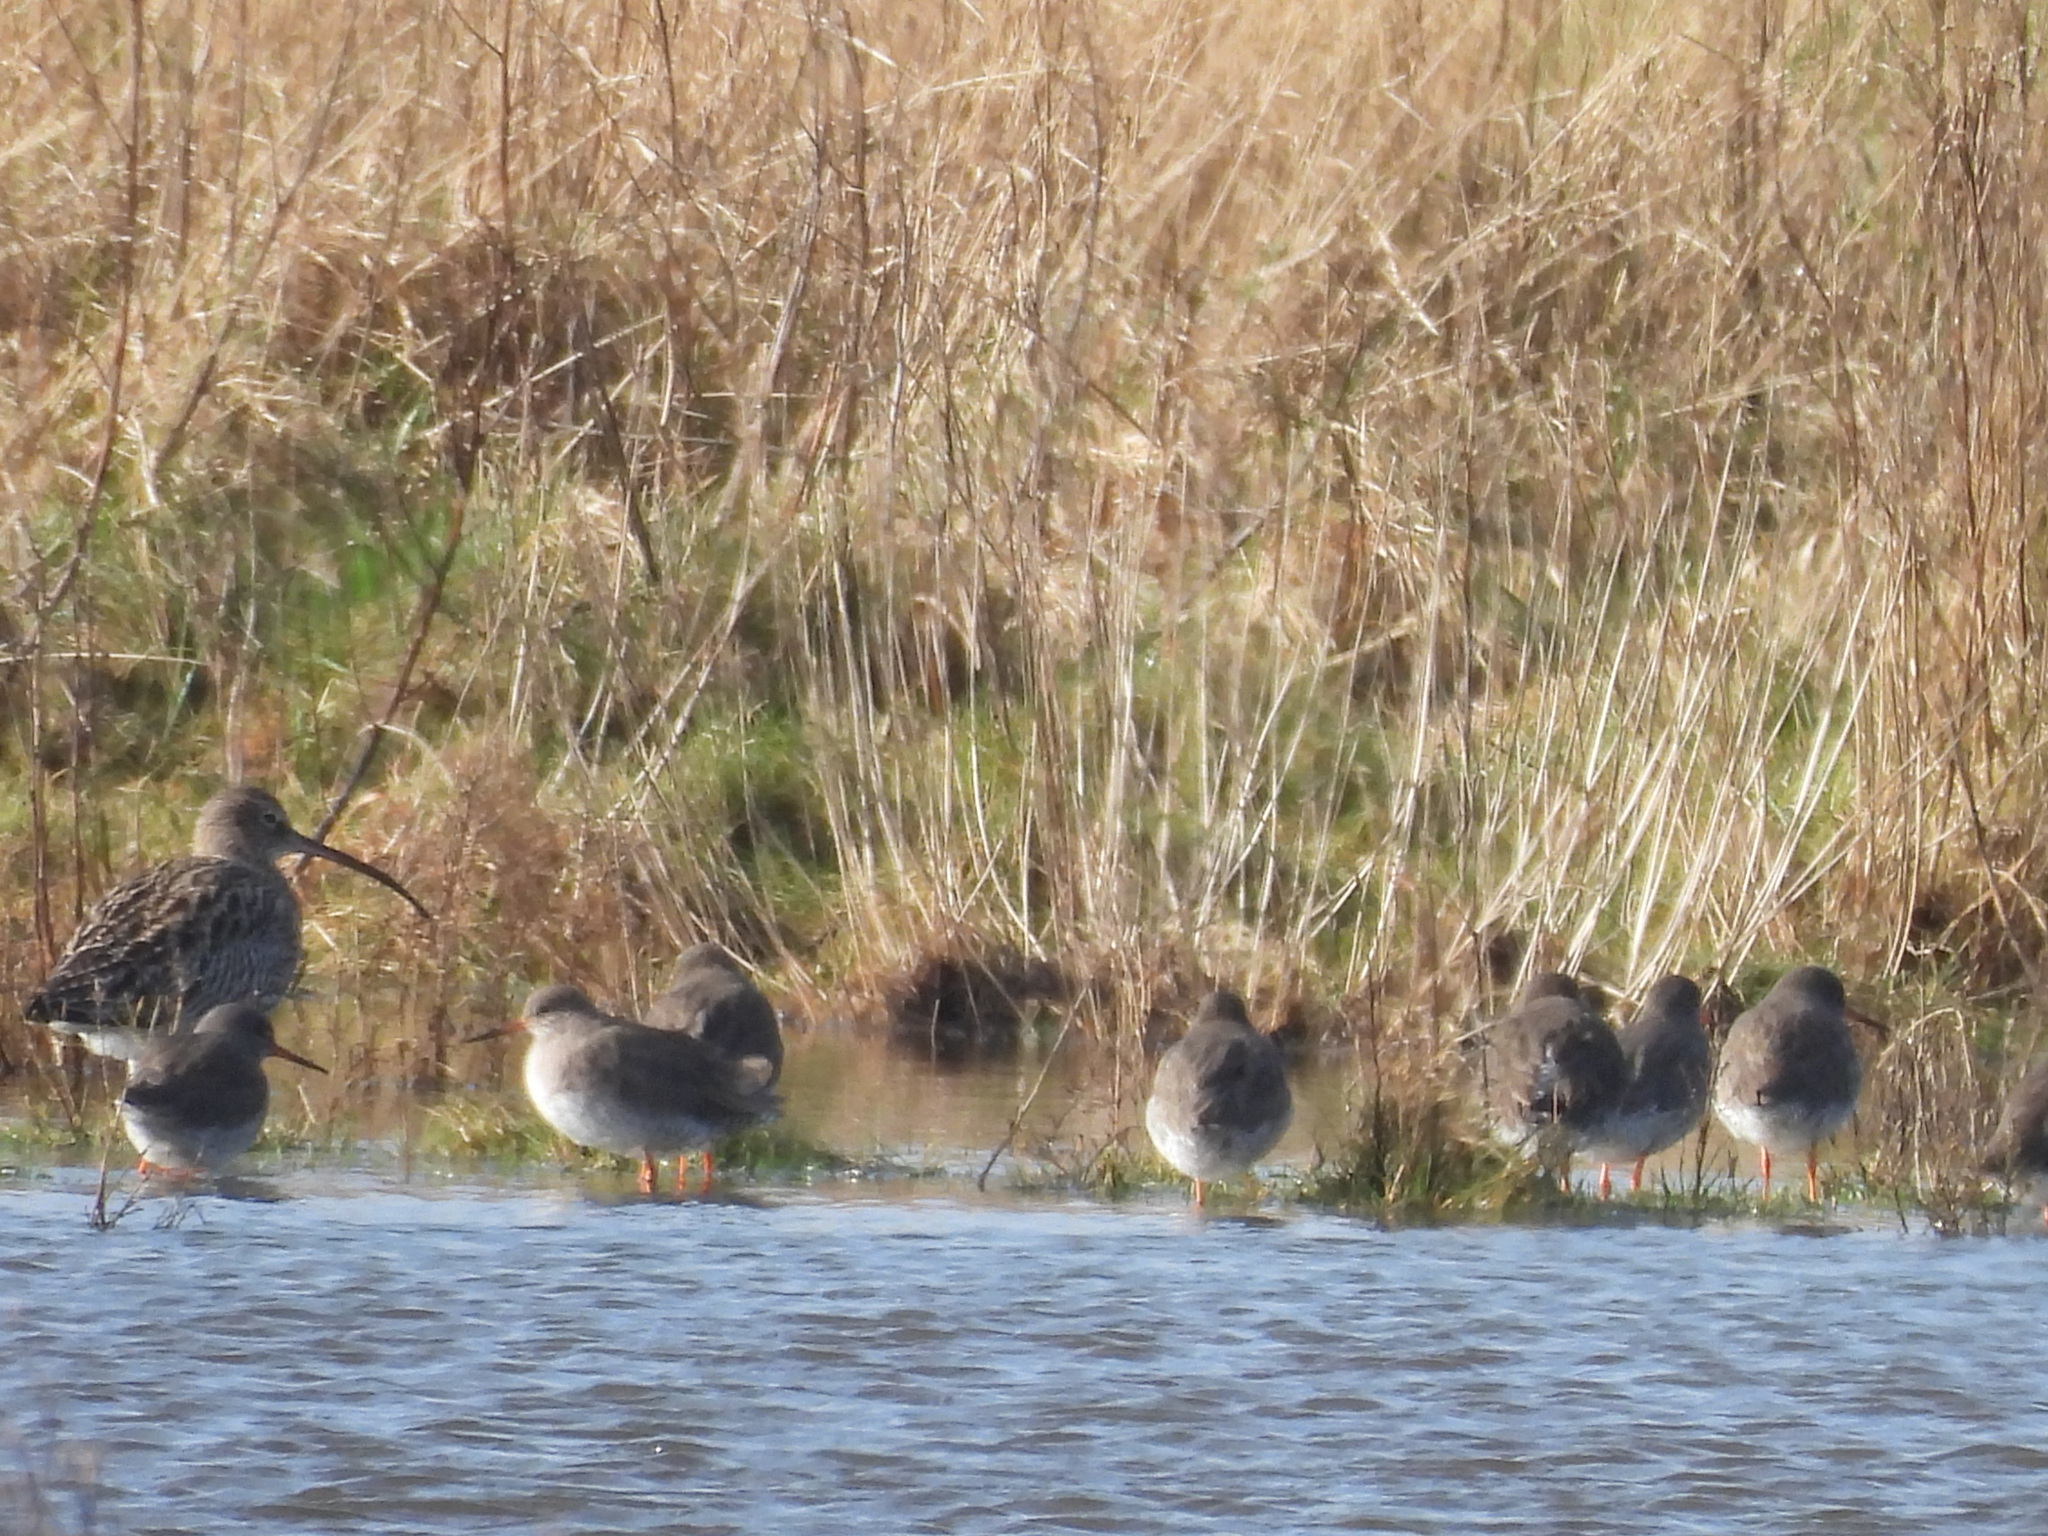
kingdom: Animalia
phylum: Chordata
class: Aves
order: Charadriiformes
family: Scolopacidae
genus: Tringa
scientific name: Tringa totanus
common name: Common redshank
